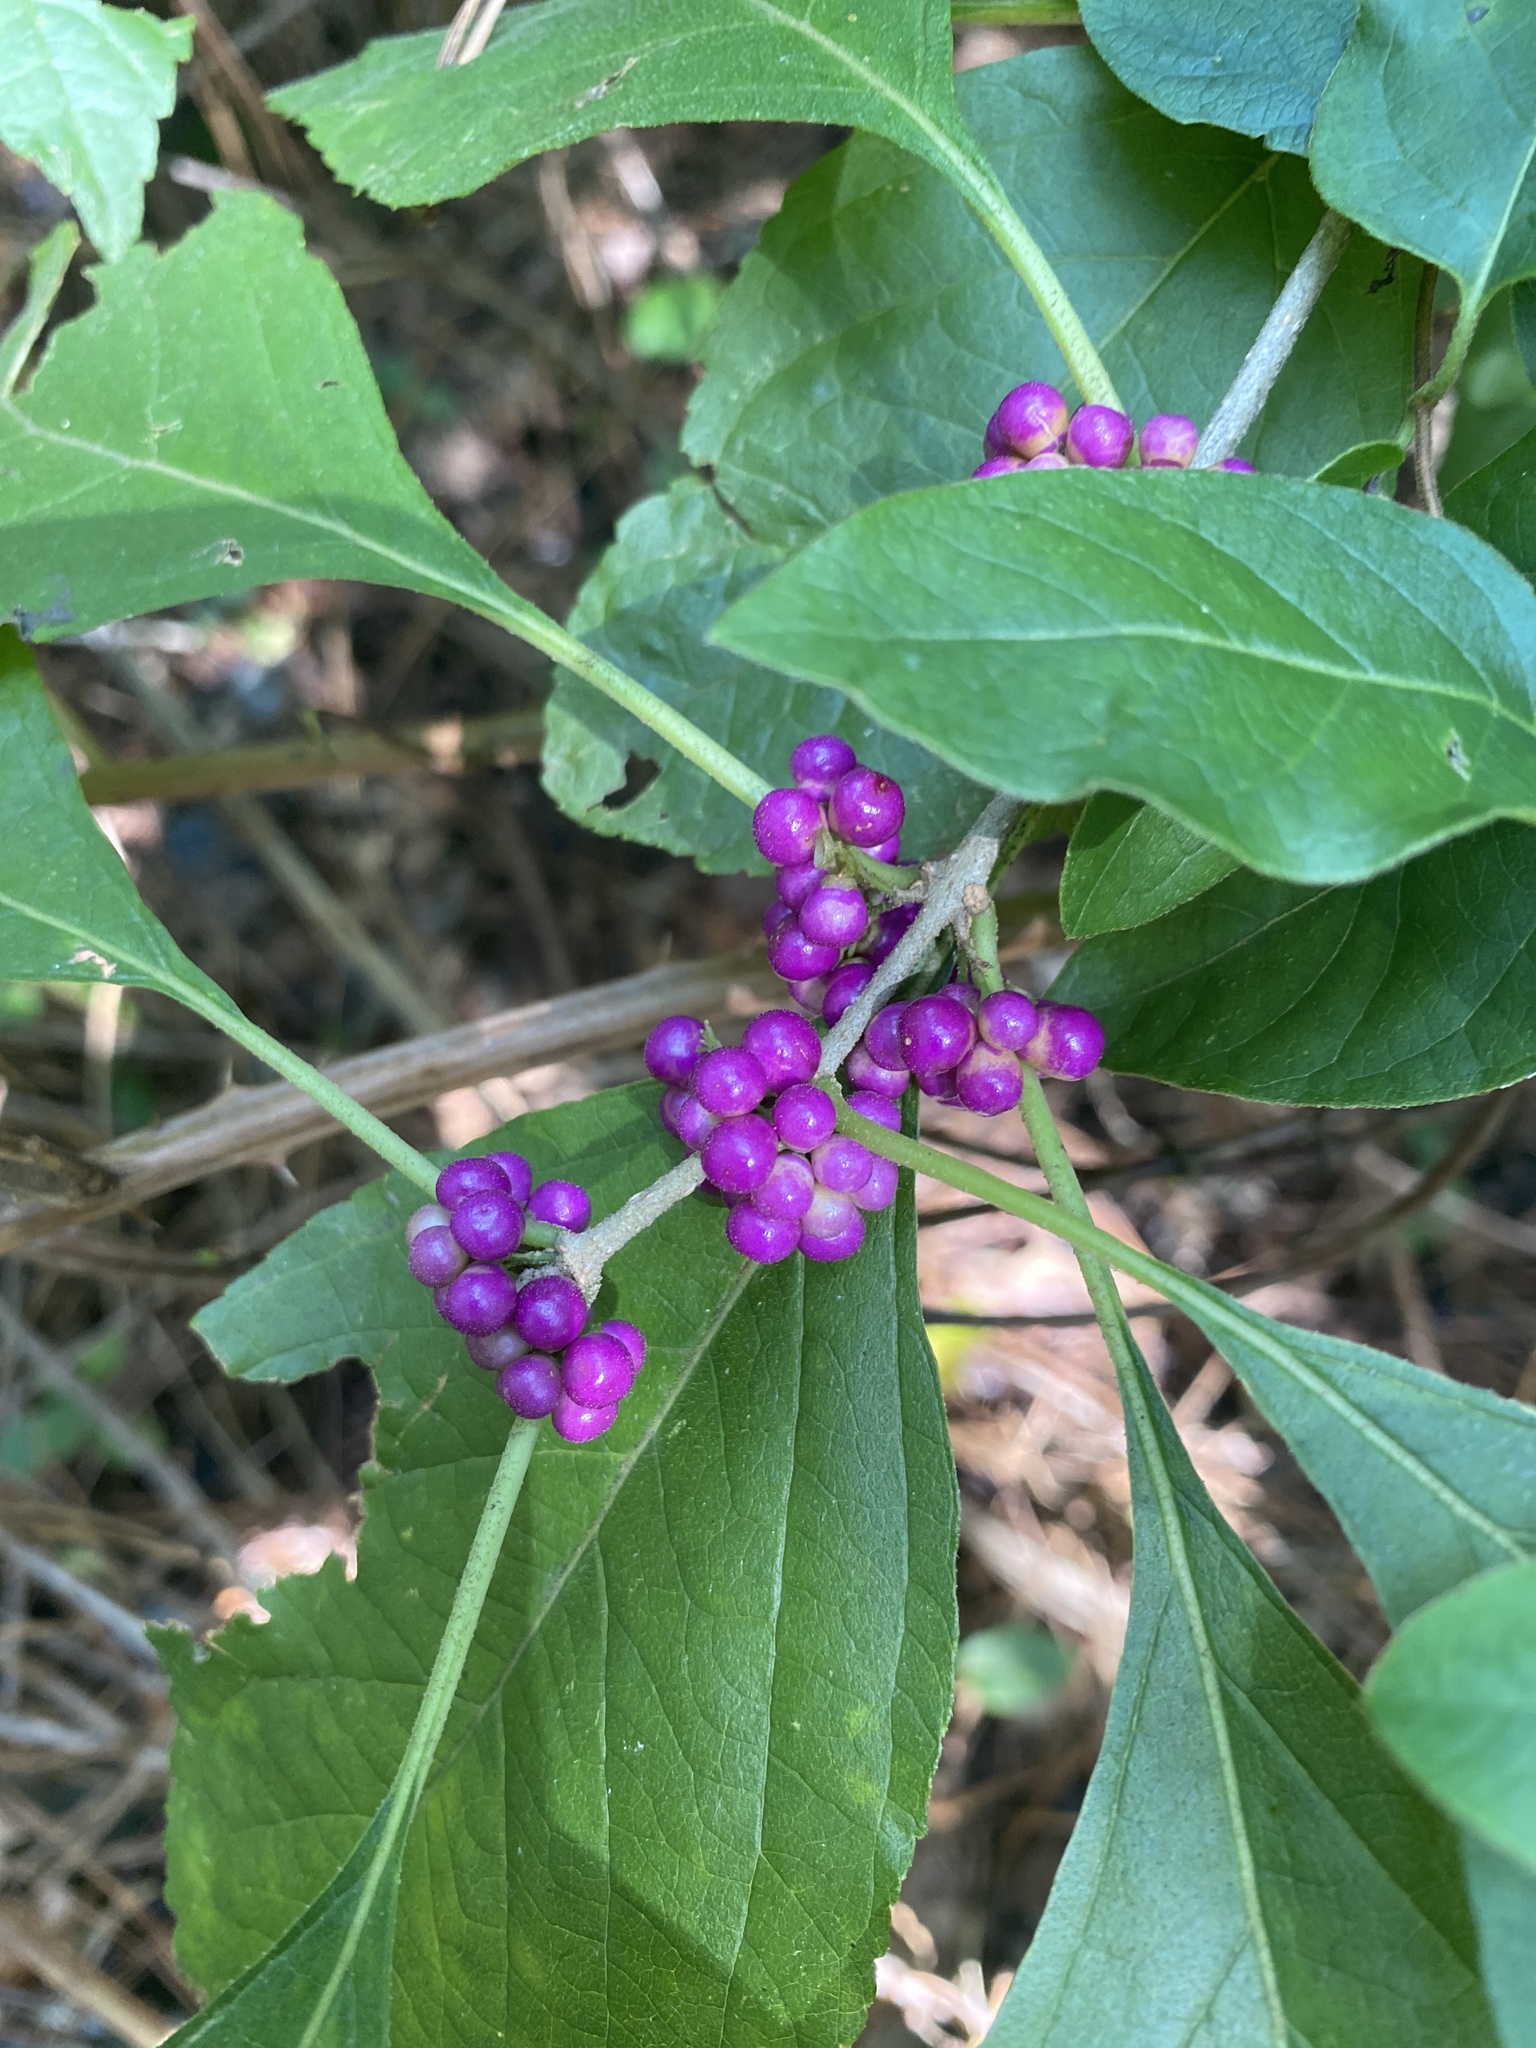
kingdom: Plantae
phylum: Tracheophyta
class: Magnoliopsida
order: Lamiales
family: Lamiaceae
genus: Callicarpa
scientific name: Callicarpa americana
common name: American beautyberry
